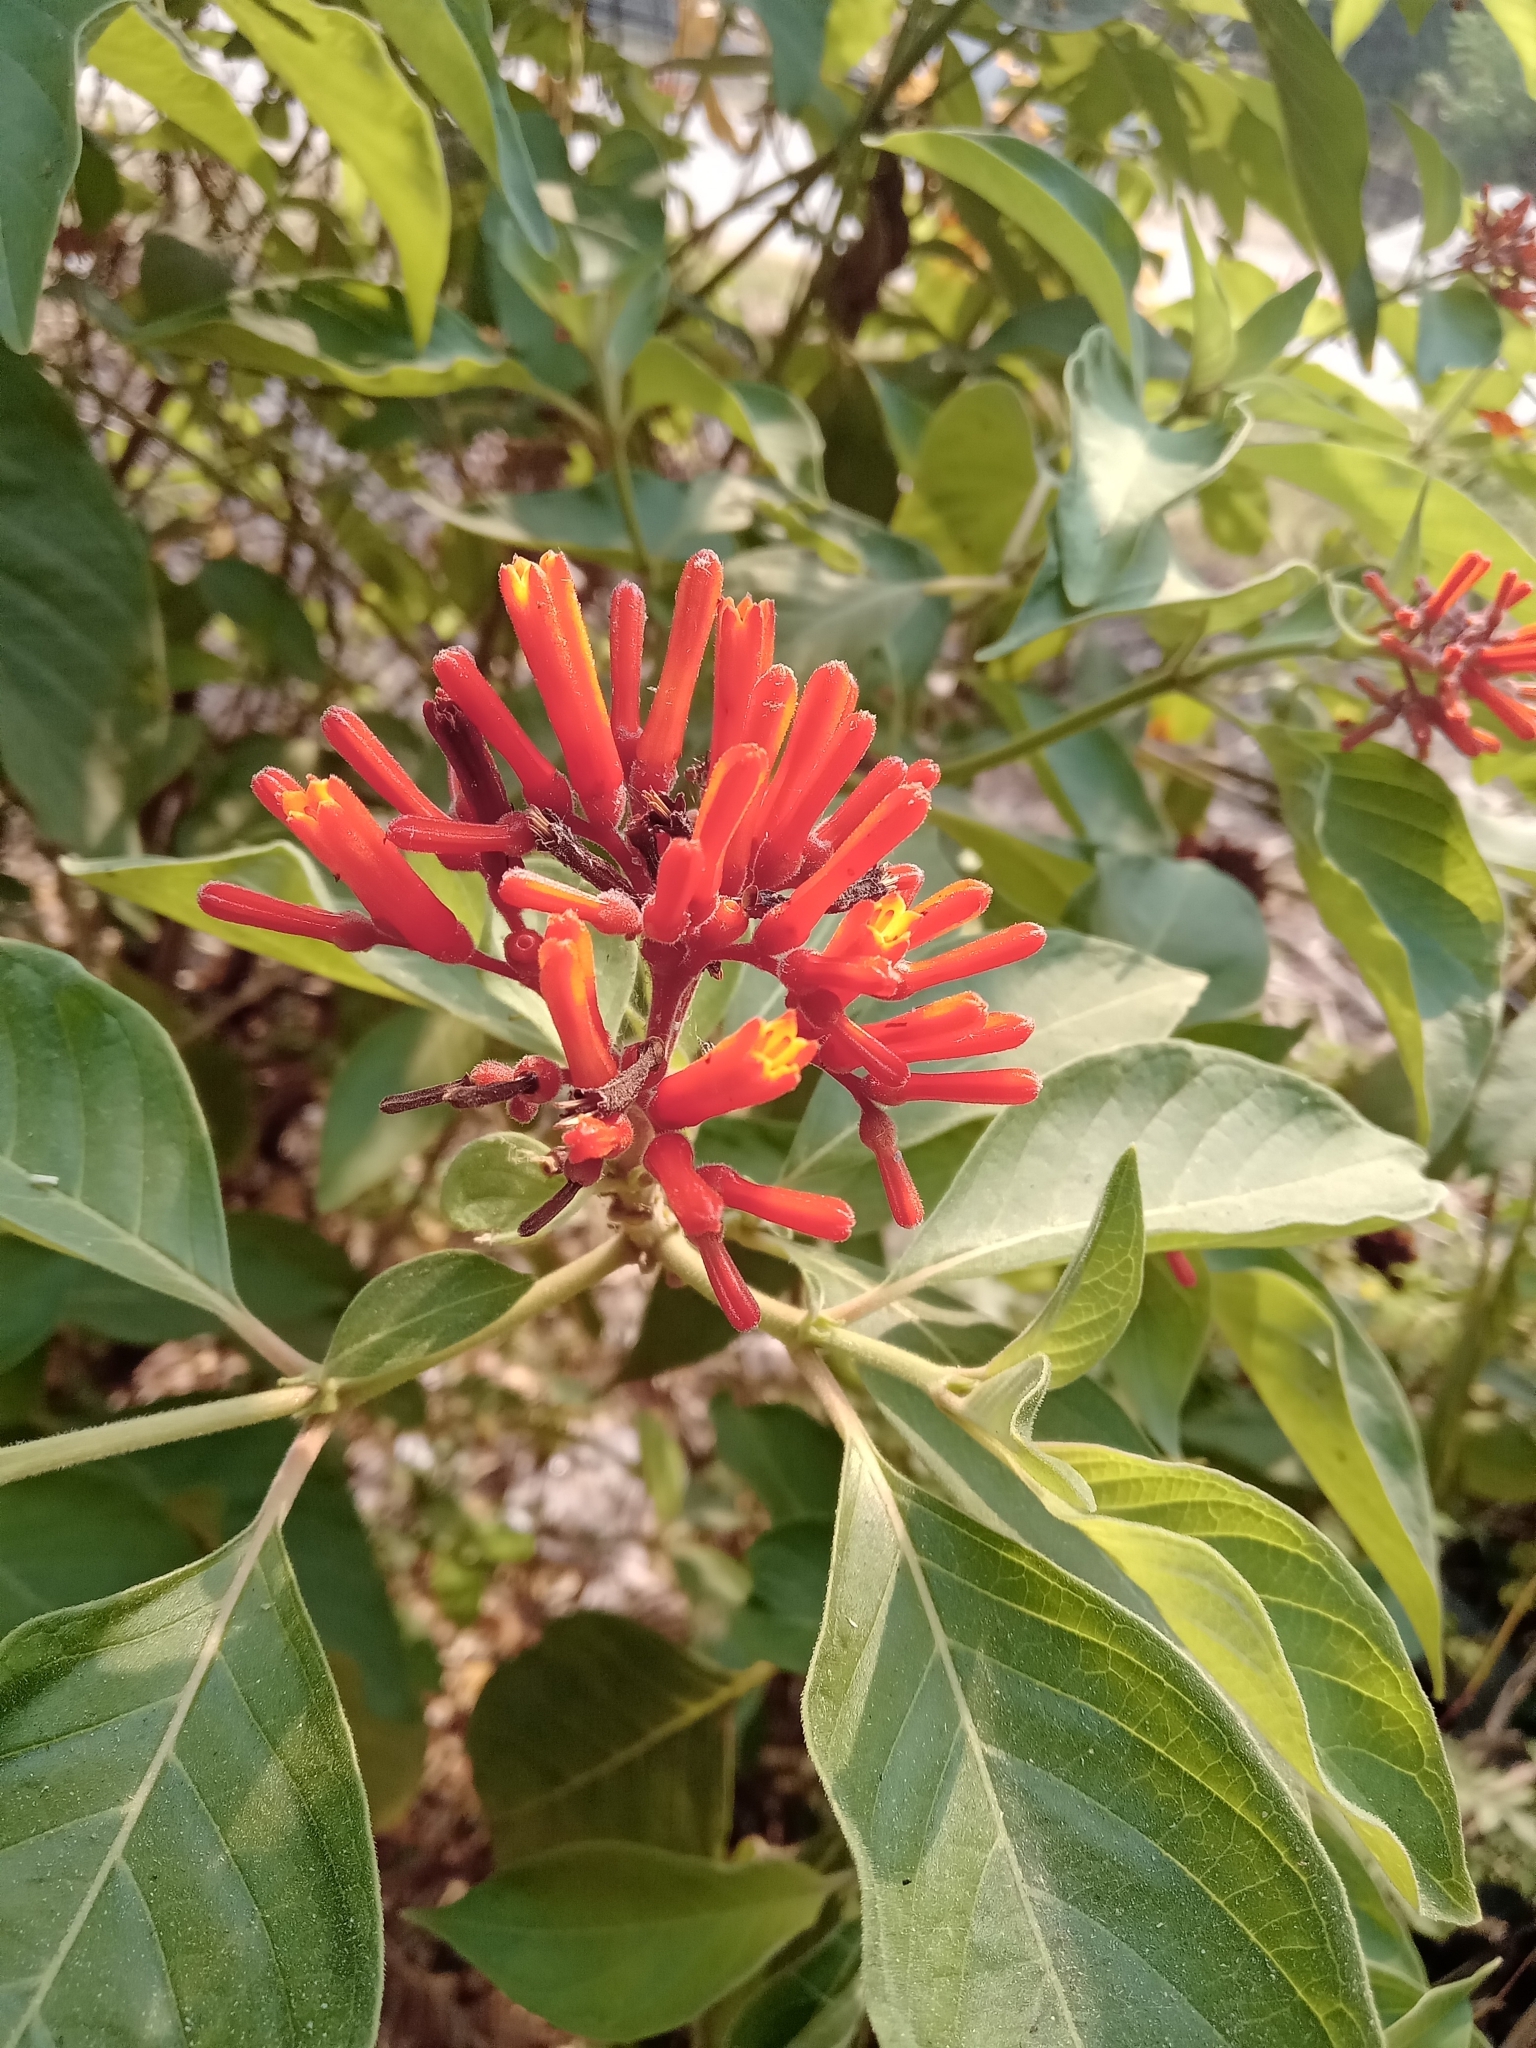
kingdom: Plantae
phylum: Tracheophyta
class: Magnoliopsida
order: Gentianales
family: Rubiaceae
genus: Hamelia
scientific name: Hamelia patens
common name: Redhead
